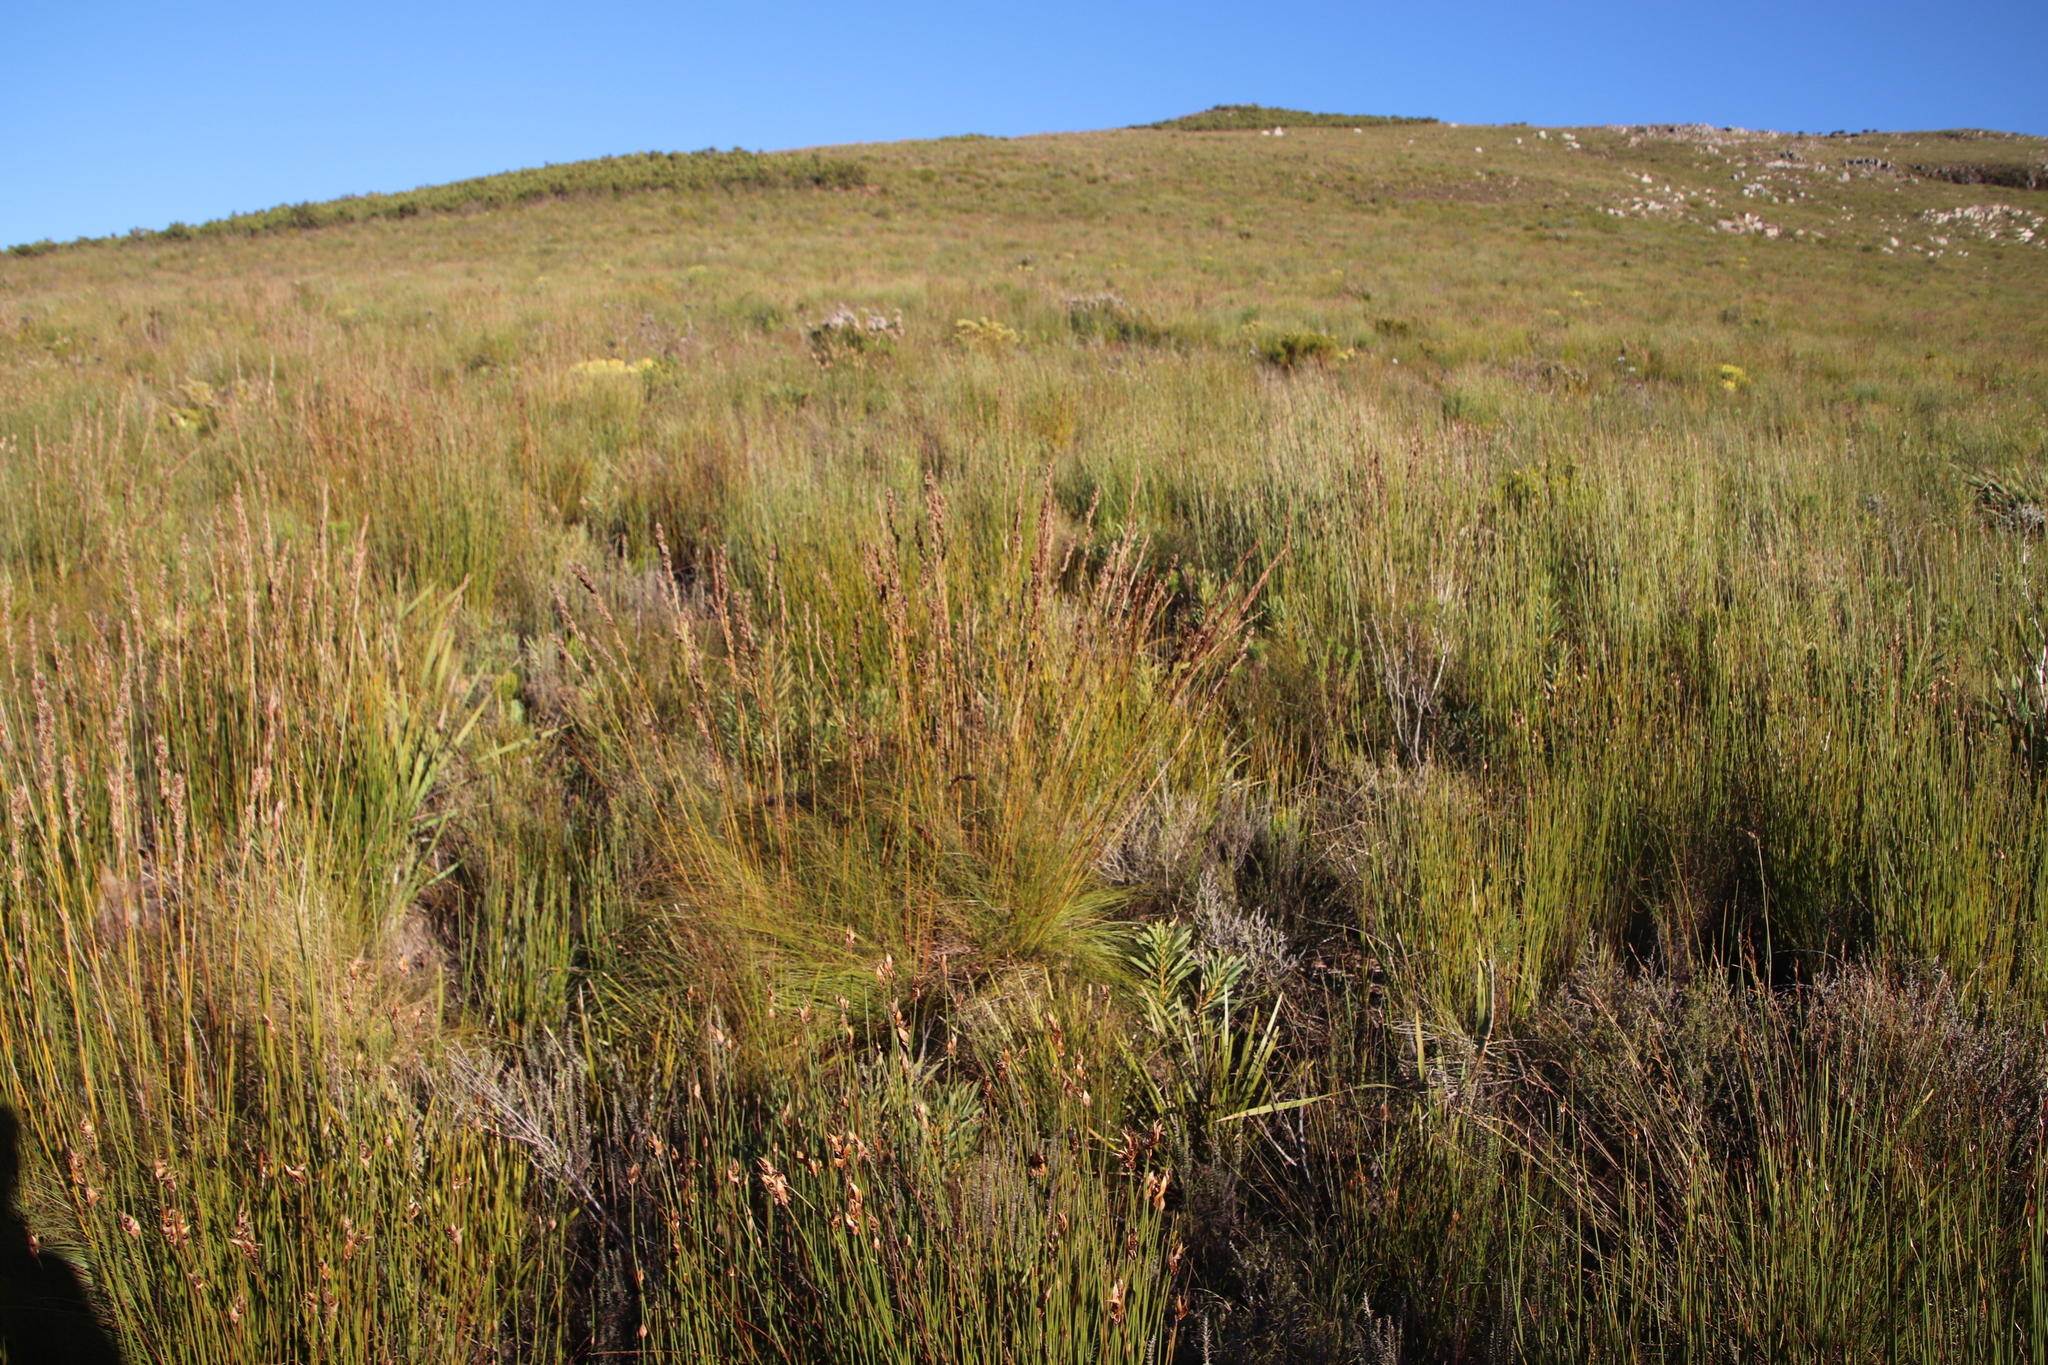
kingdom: Plantae
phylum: Tracheophyta
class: Liliopsida
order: Poales
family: Cyperaceae
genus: Tetraria
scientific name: Tetraria capillacea
